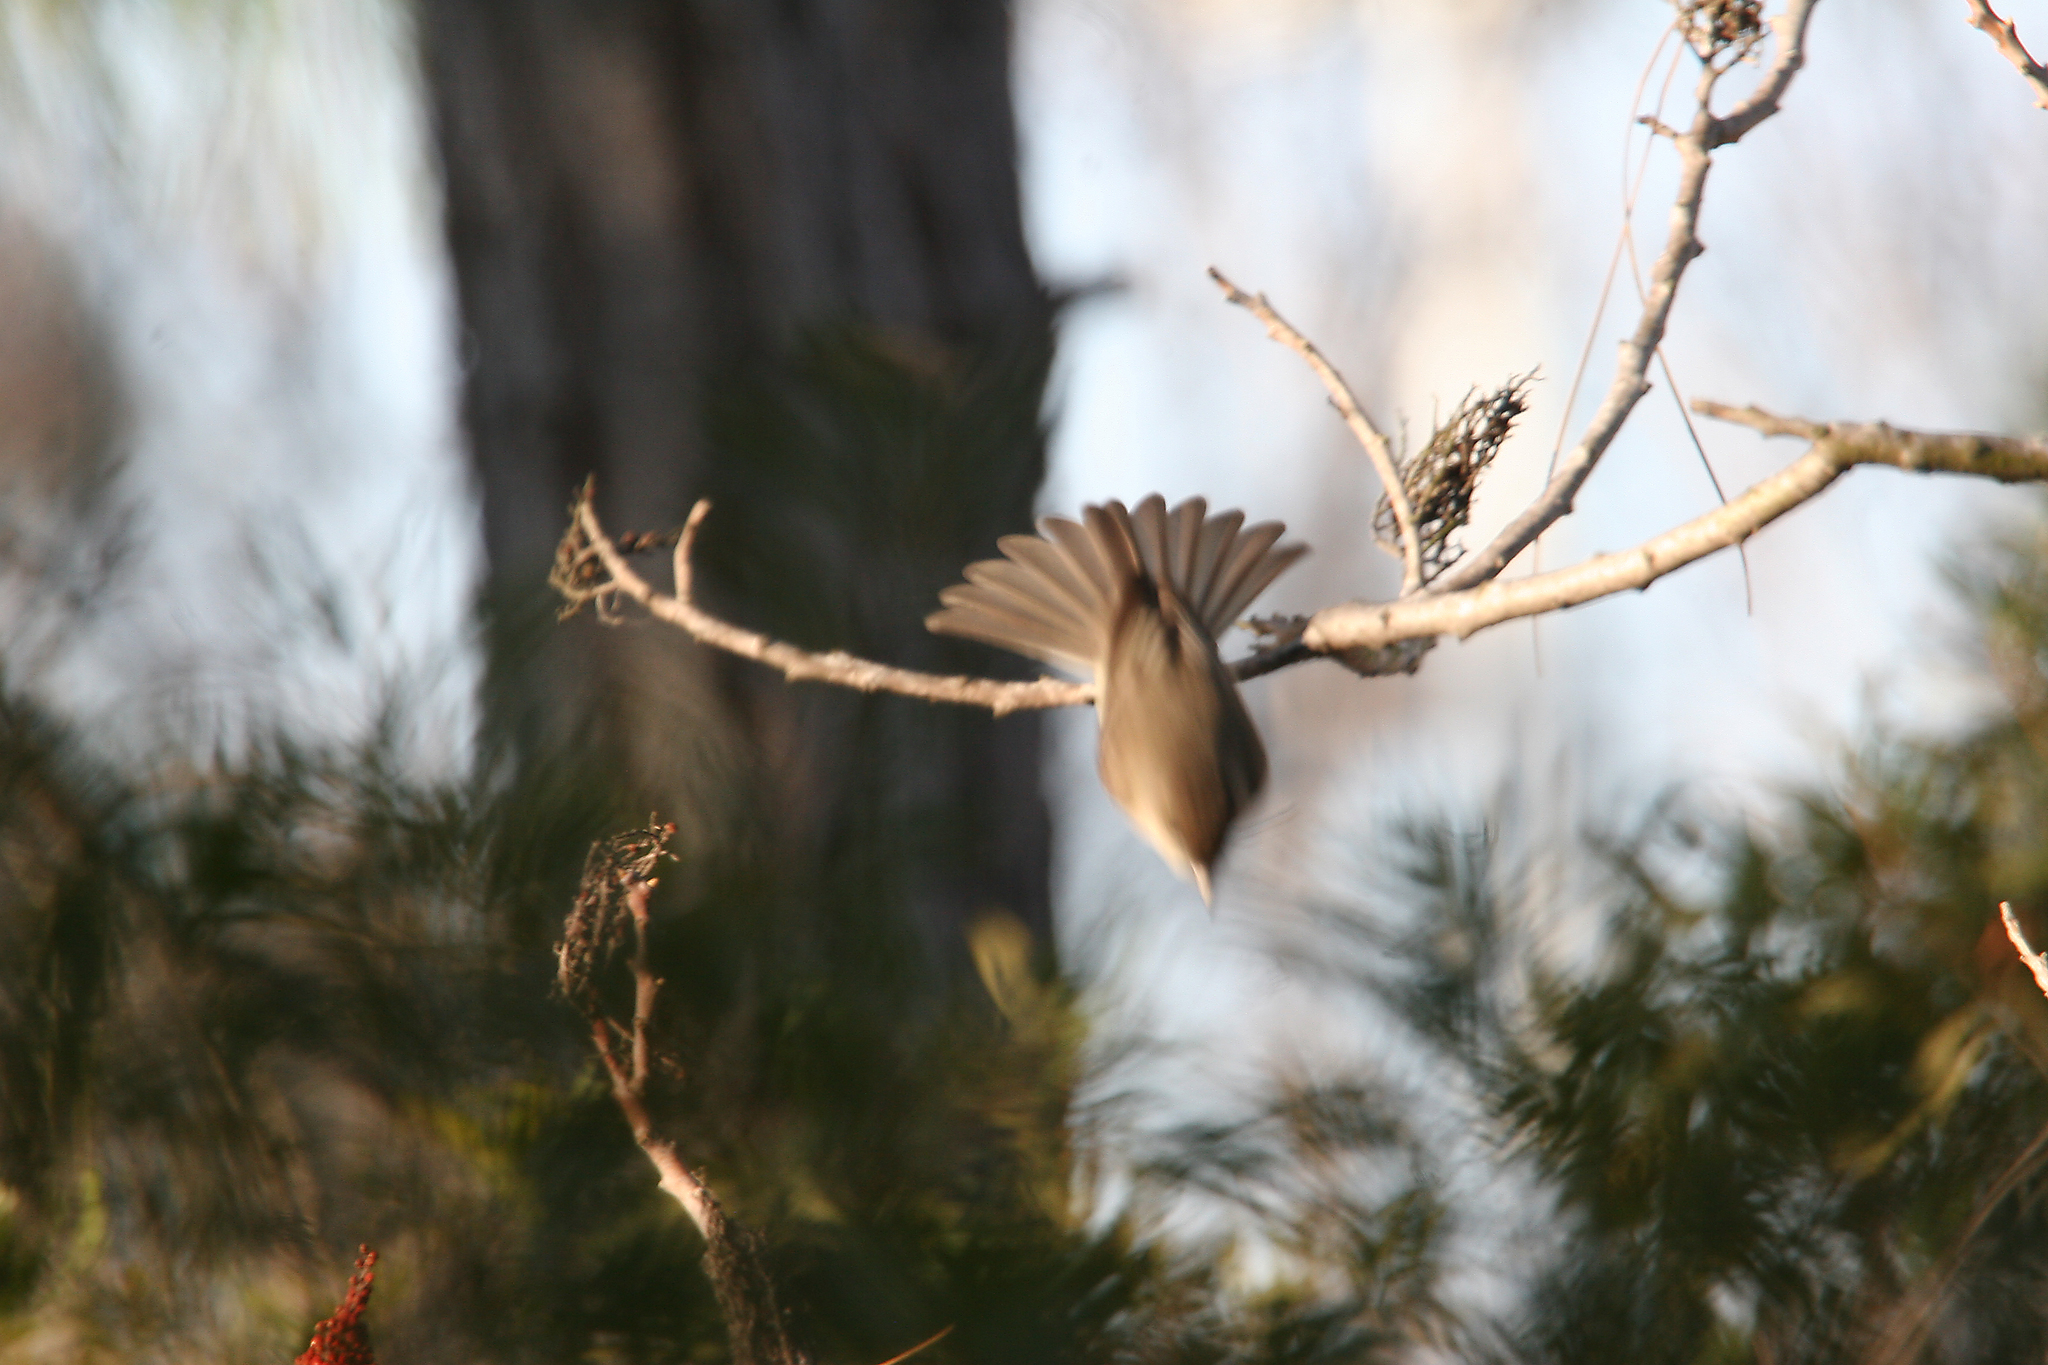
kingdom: Animalia
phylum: Chordata
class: Aves
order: Passeriformes
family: Tyrannidae
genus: Sayornis
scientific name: Sayornis phoebe
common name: Eastern phoebe
